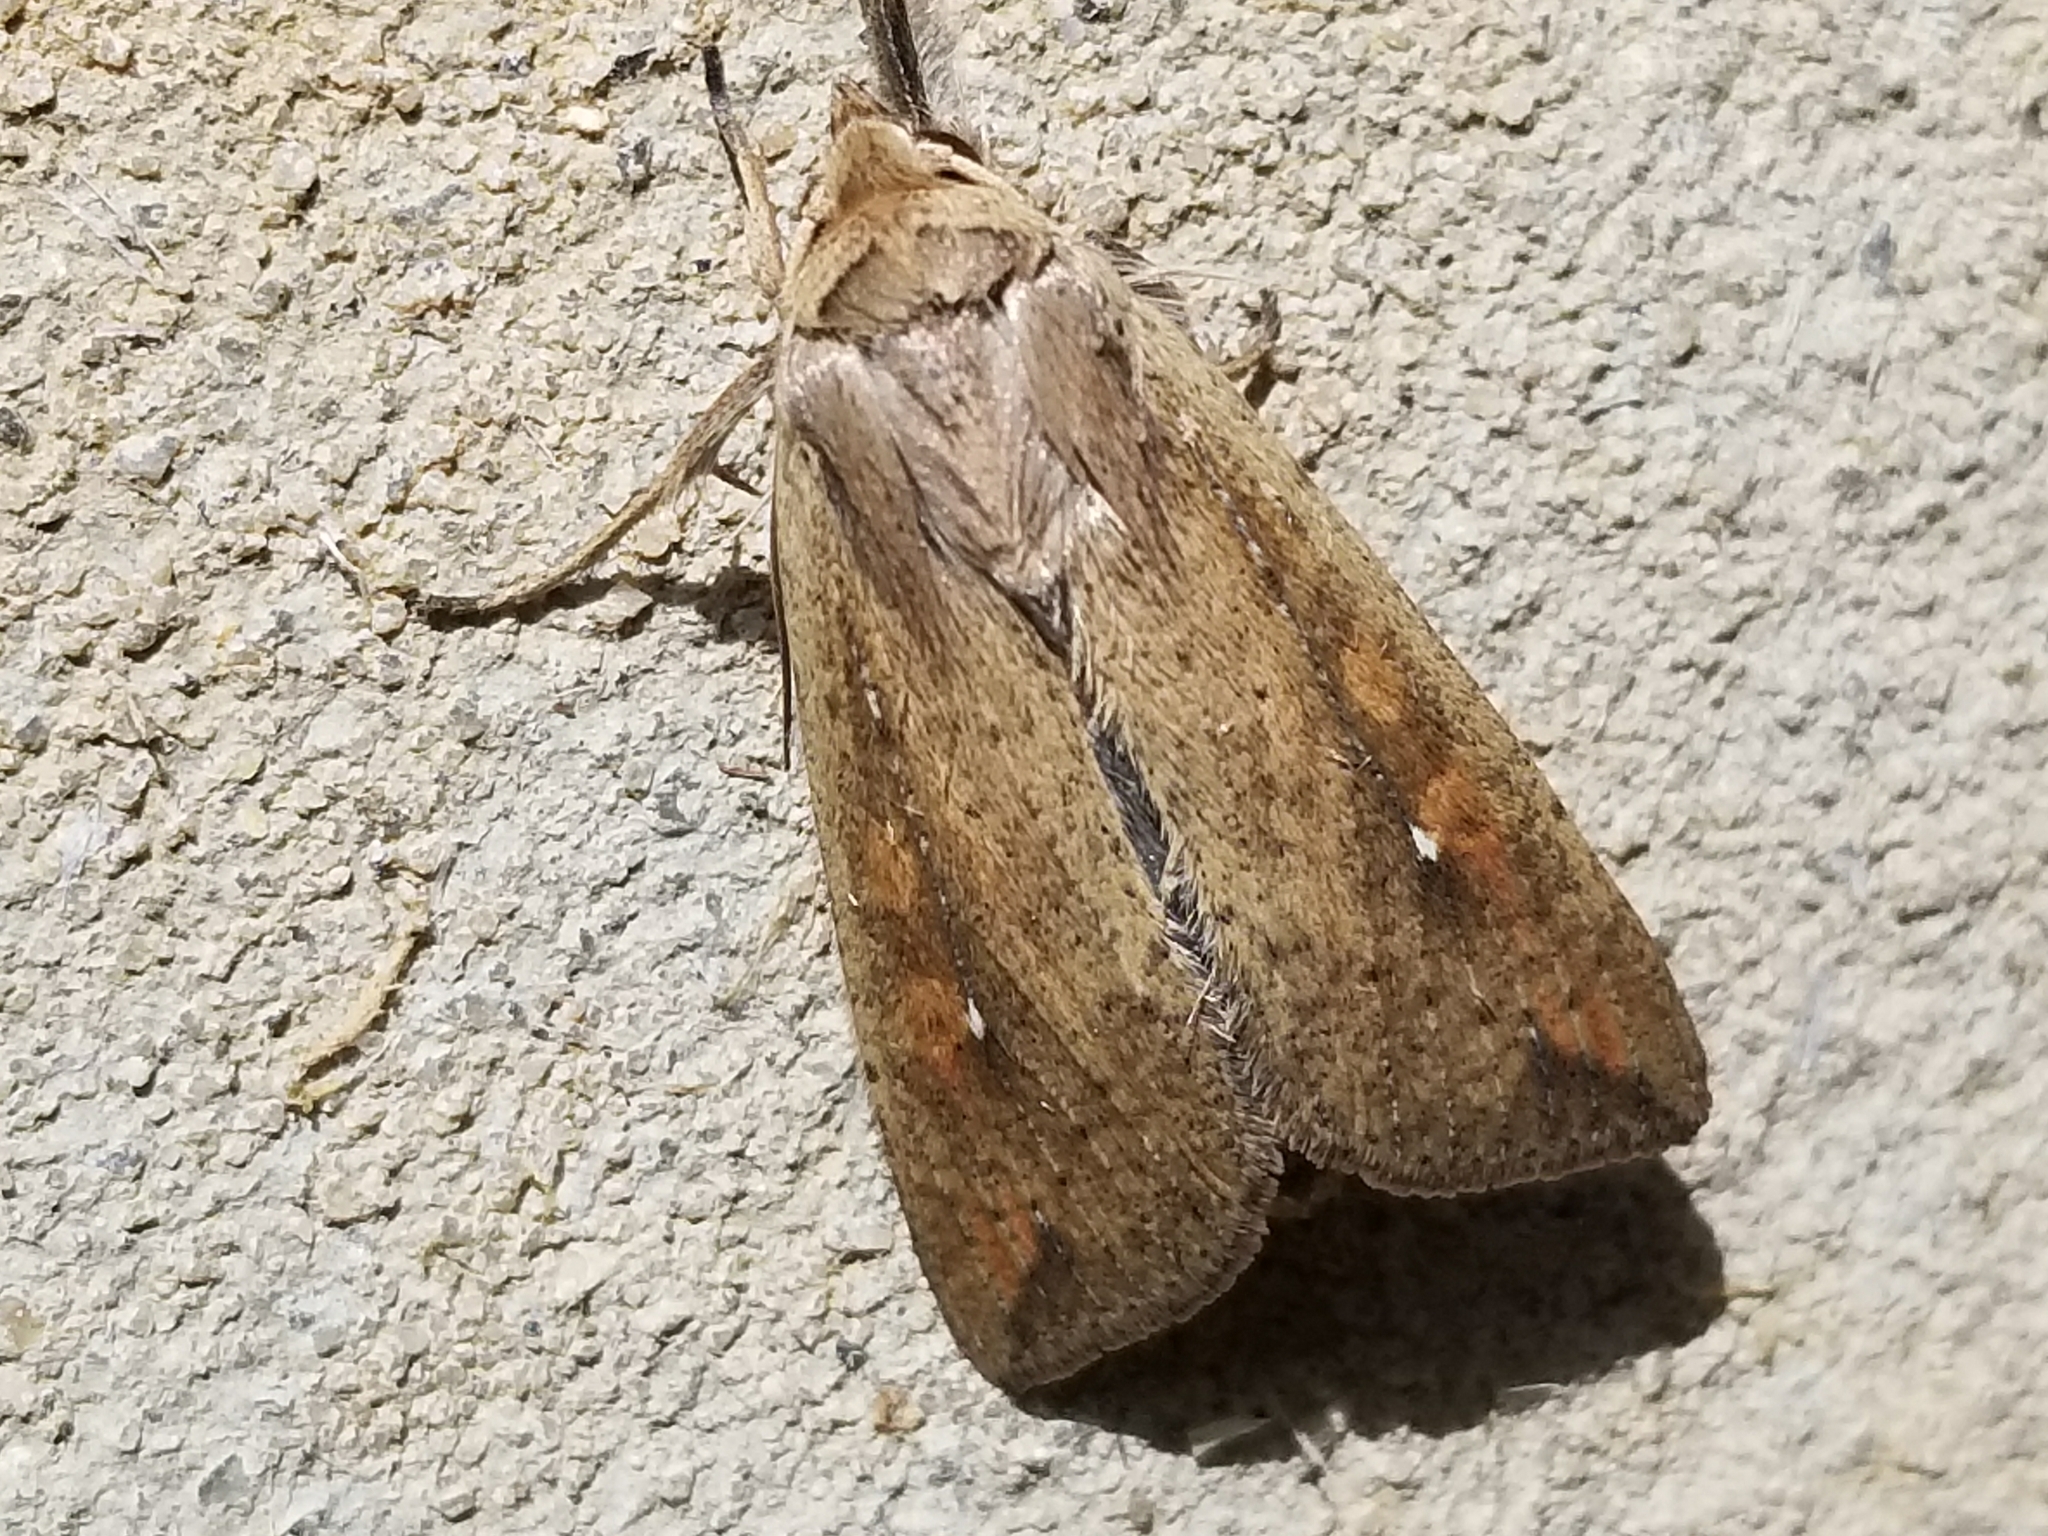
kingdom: Animalia
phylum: Arthropoda
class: Insecta
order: Lepidoptera
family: Noctuidae
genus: Mythimna
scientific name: Mythimna unipuncta
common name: White-speck
